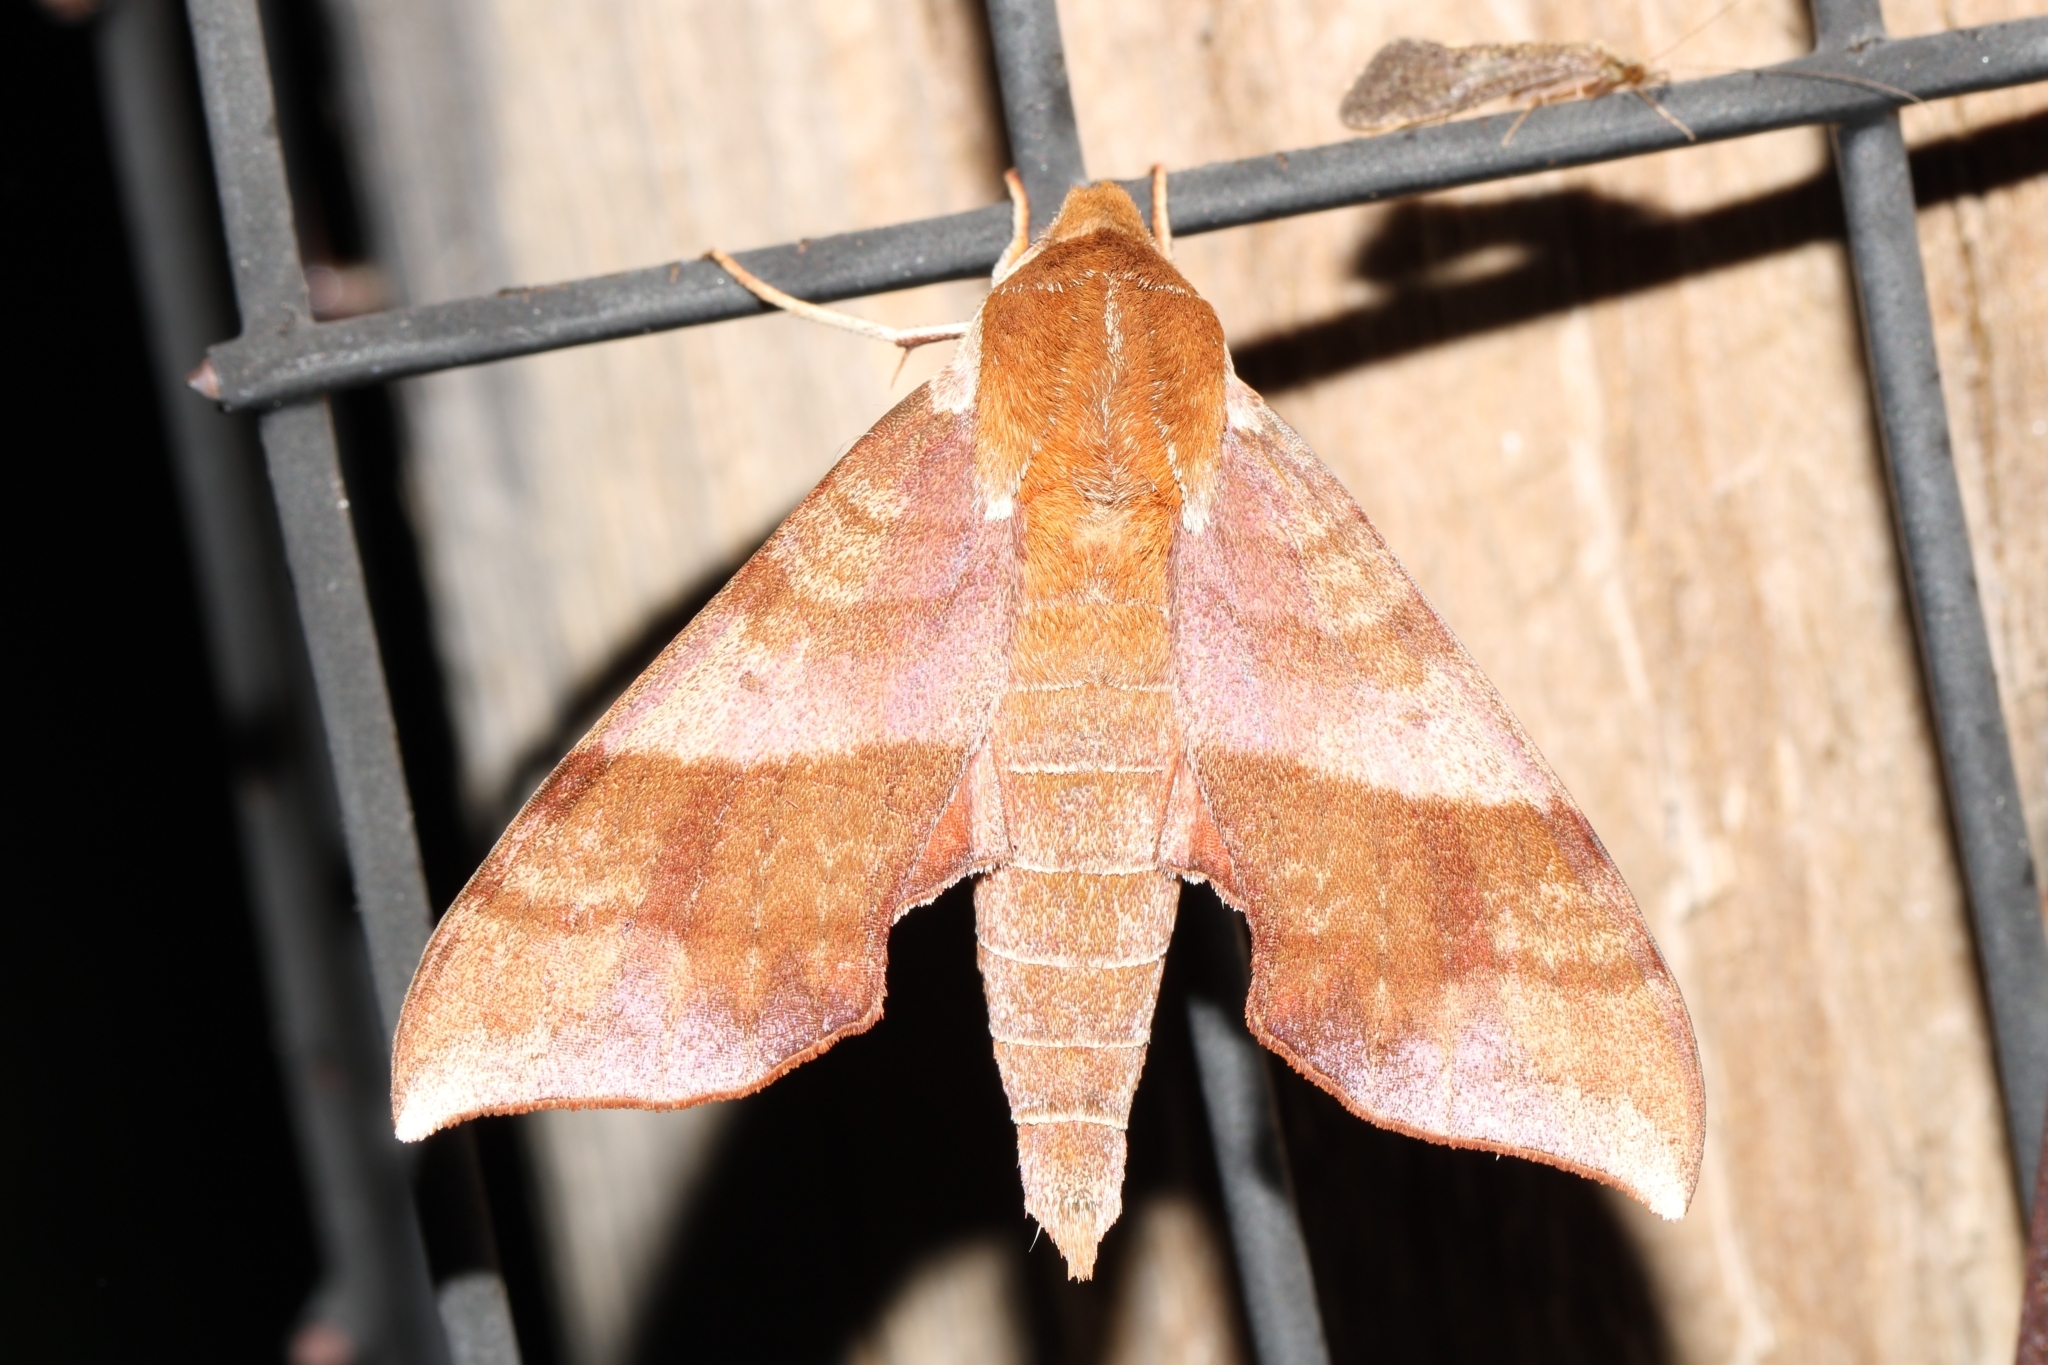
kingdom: Animalia
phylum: Arthropoda
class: Insecta
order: Lepidoptera
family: Sphingidae
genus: Darapsa
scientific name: Darapsa choerilus
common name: Azalea sphinx
